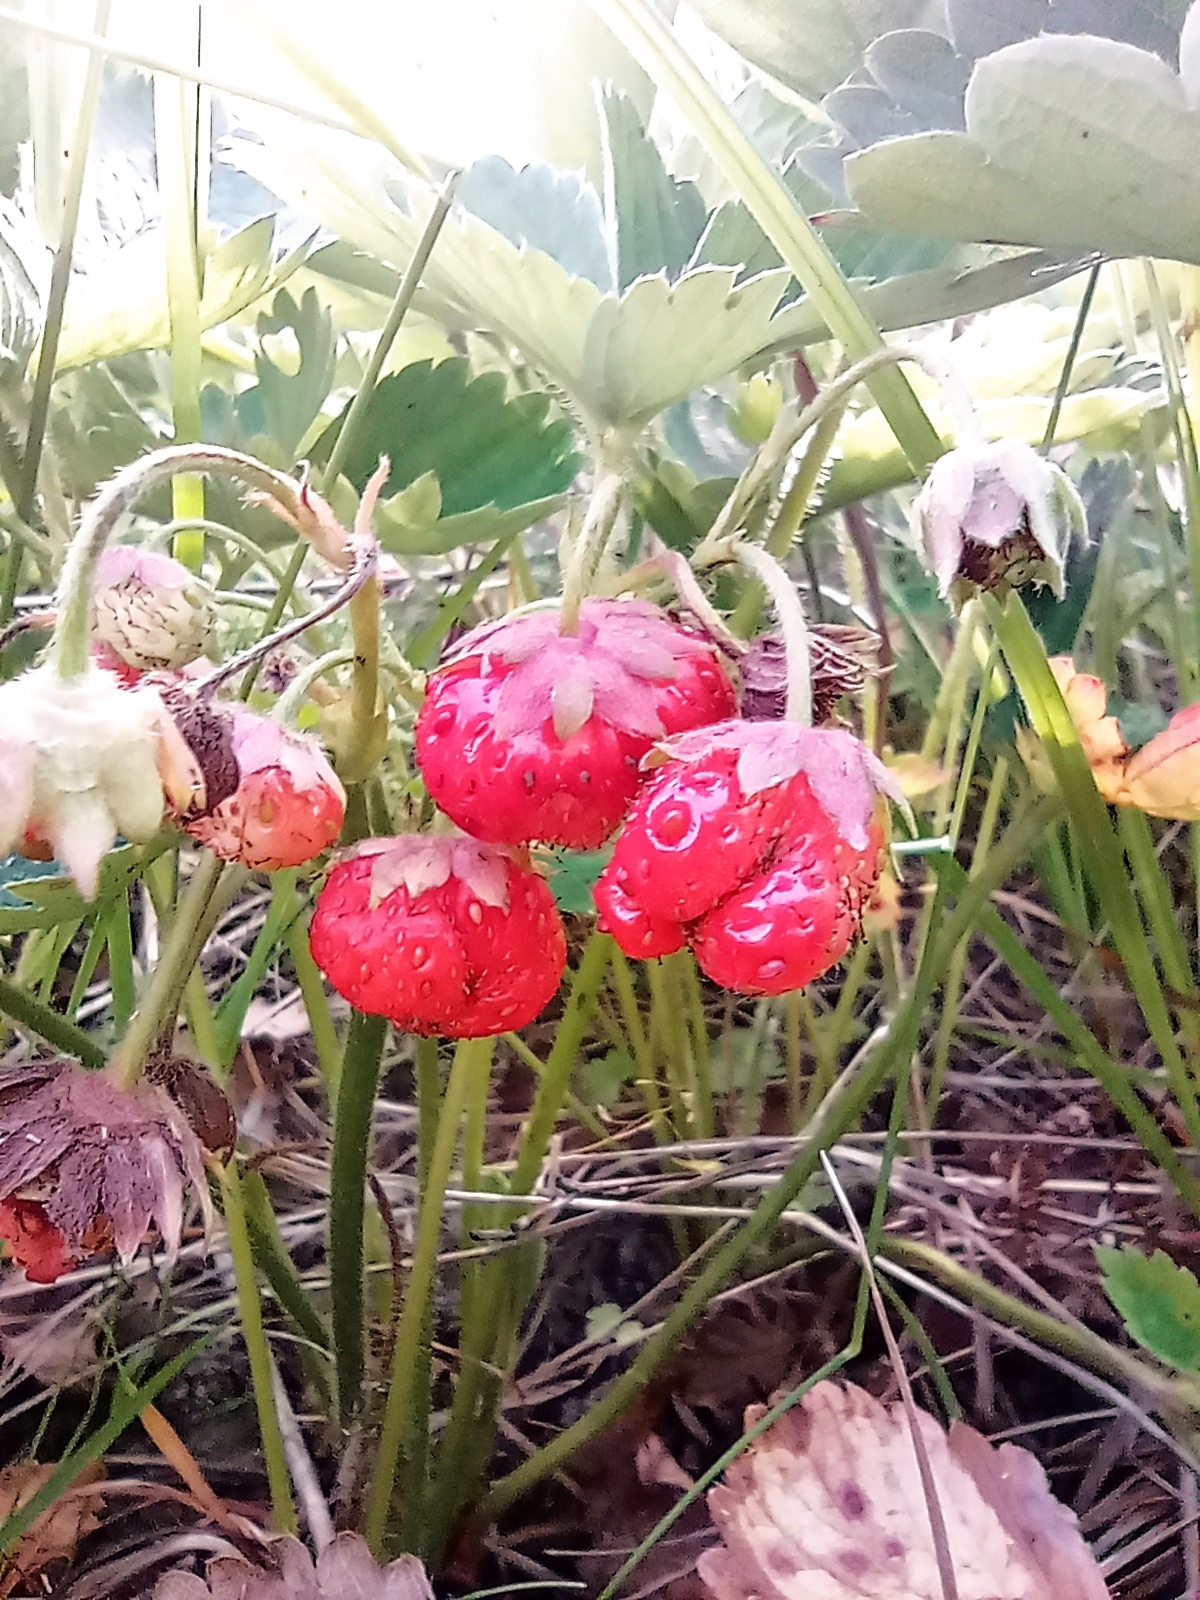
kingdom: Plantae
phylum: Tracheophyta
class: Magnoliopsida
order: Rosales
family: Rosaceae
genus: Fragaria
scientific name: Fragaria viridis
